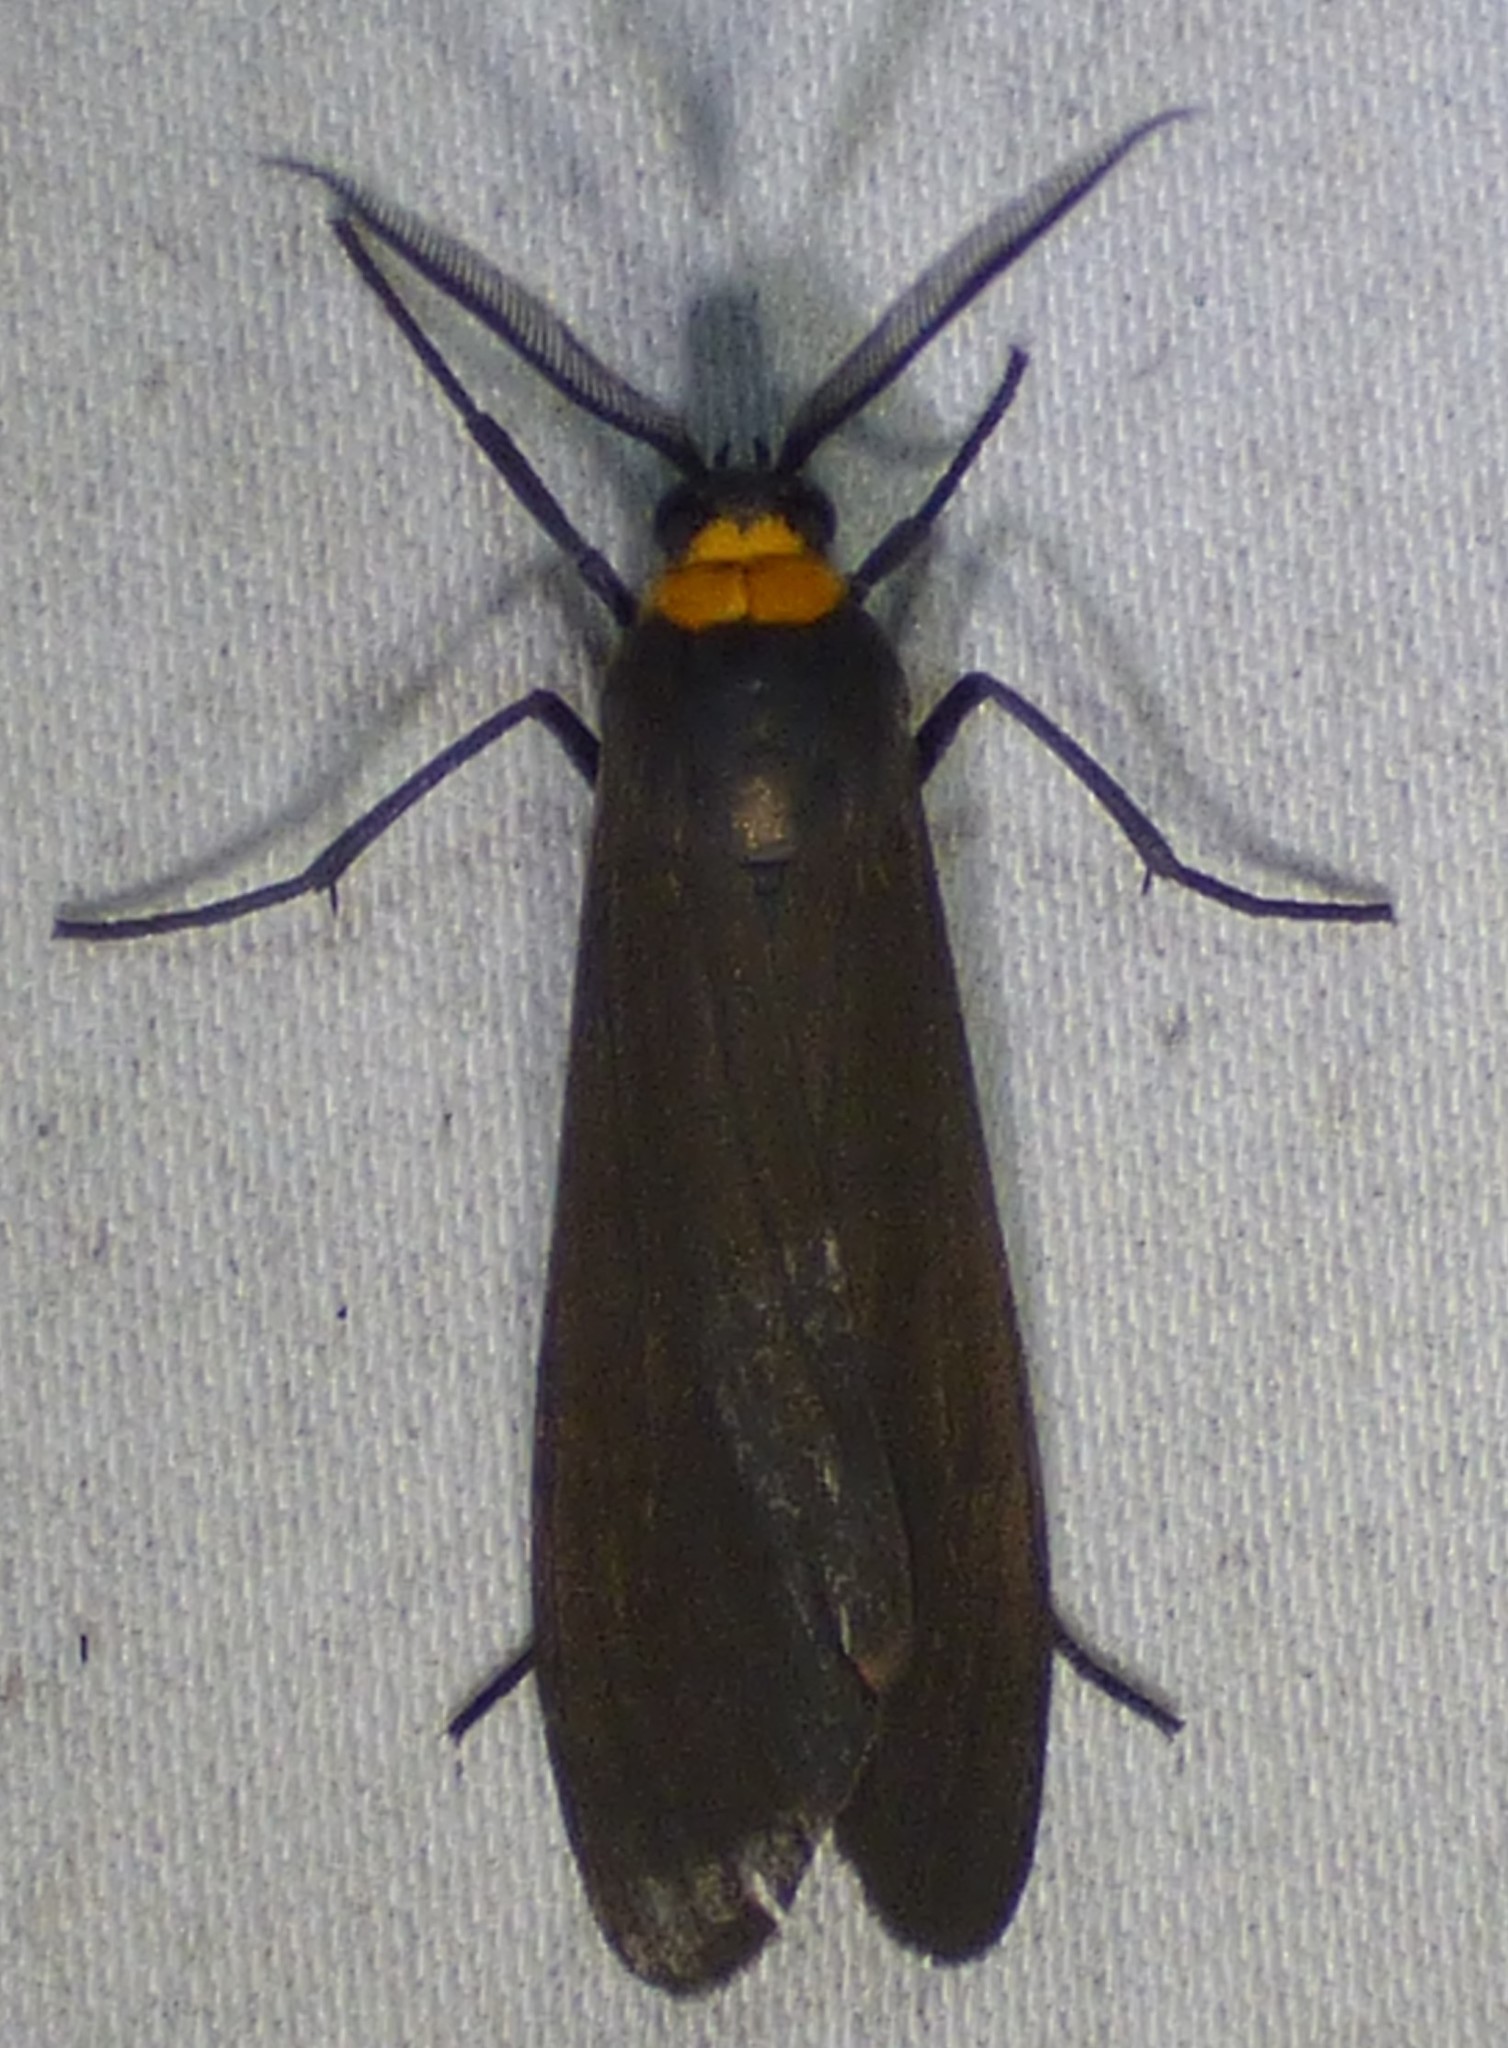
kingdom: Animalia
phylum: Arthropoda
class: Insecta
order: Lepidoptera
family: Erebidae
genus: Cisseps
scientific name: Cisseps fulvicollis
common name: Yellow-collared scape moth
